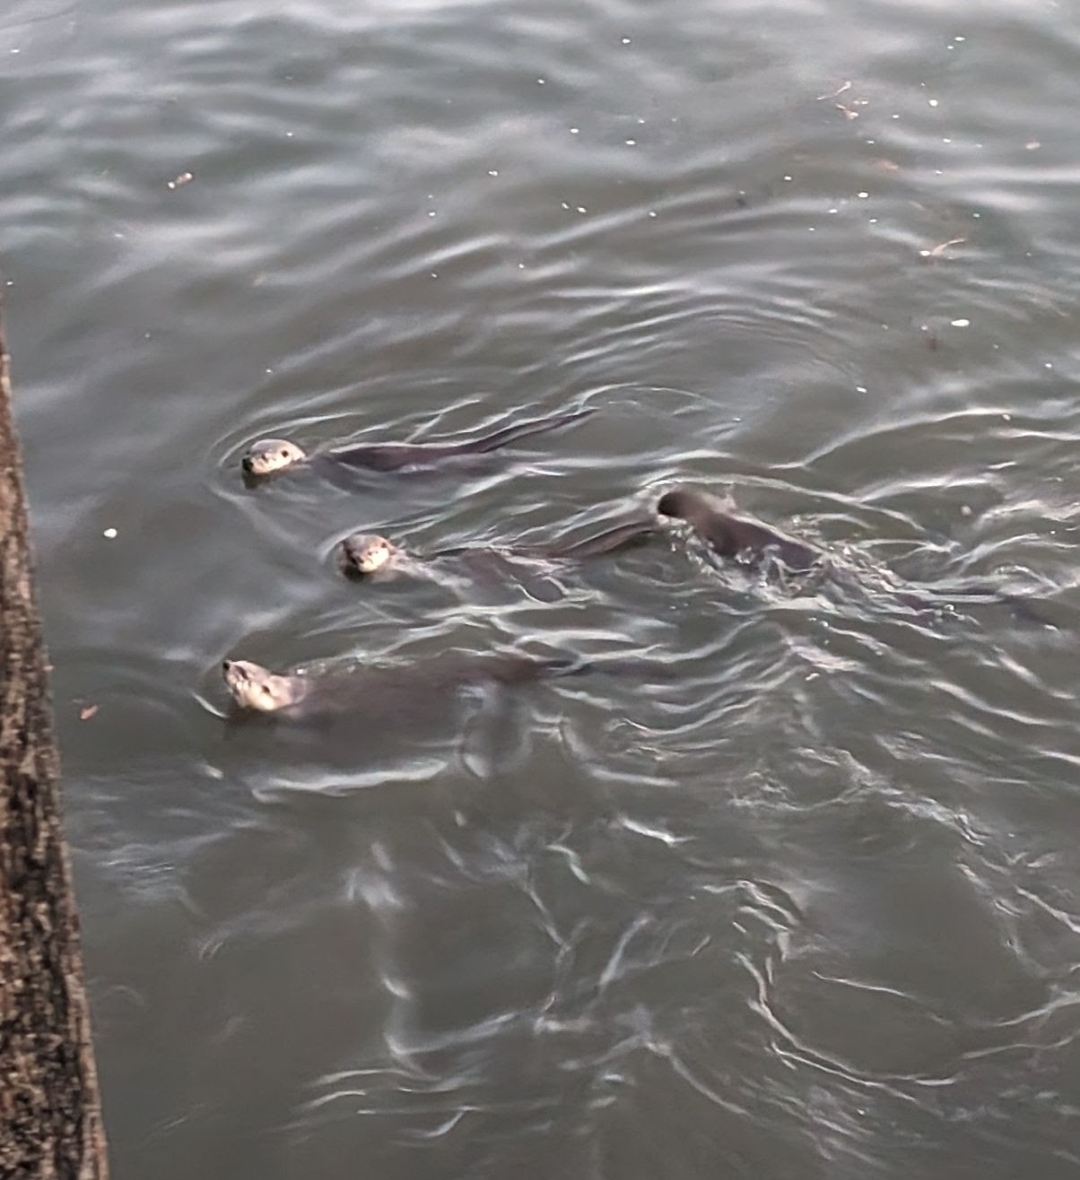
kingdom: Animalia
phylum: Chordata
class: Mammalia
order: Carnivora
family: Mustelidae
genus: Lontra
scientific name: Lontra canadensis
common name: North american river otter
